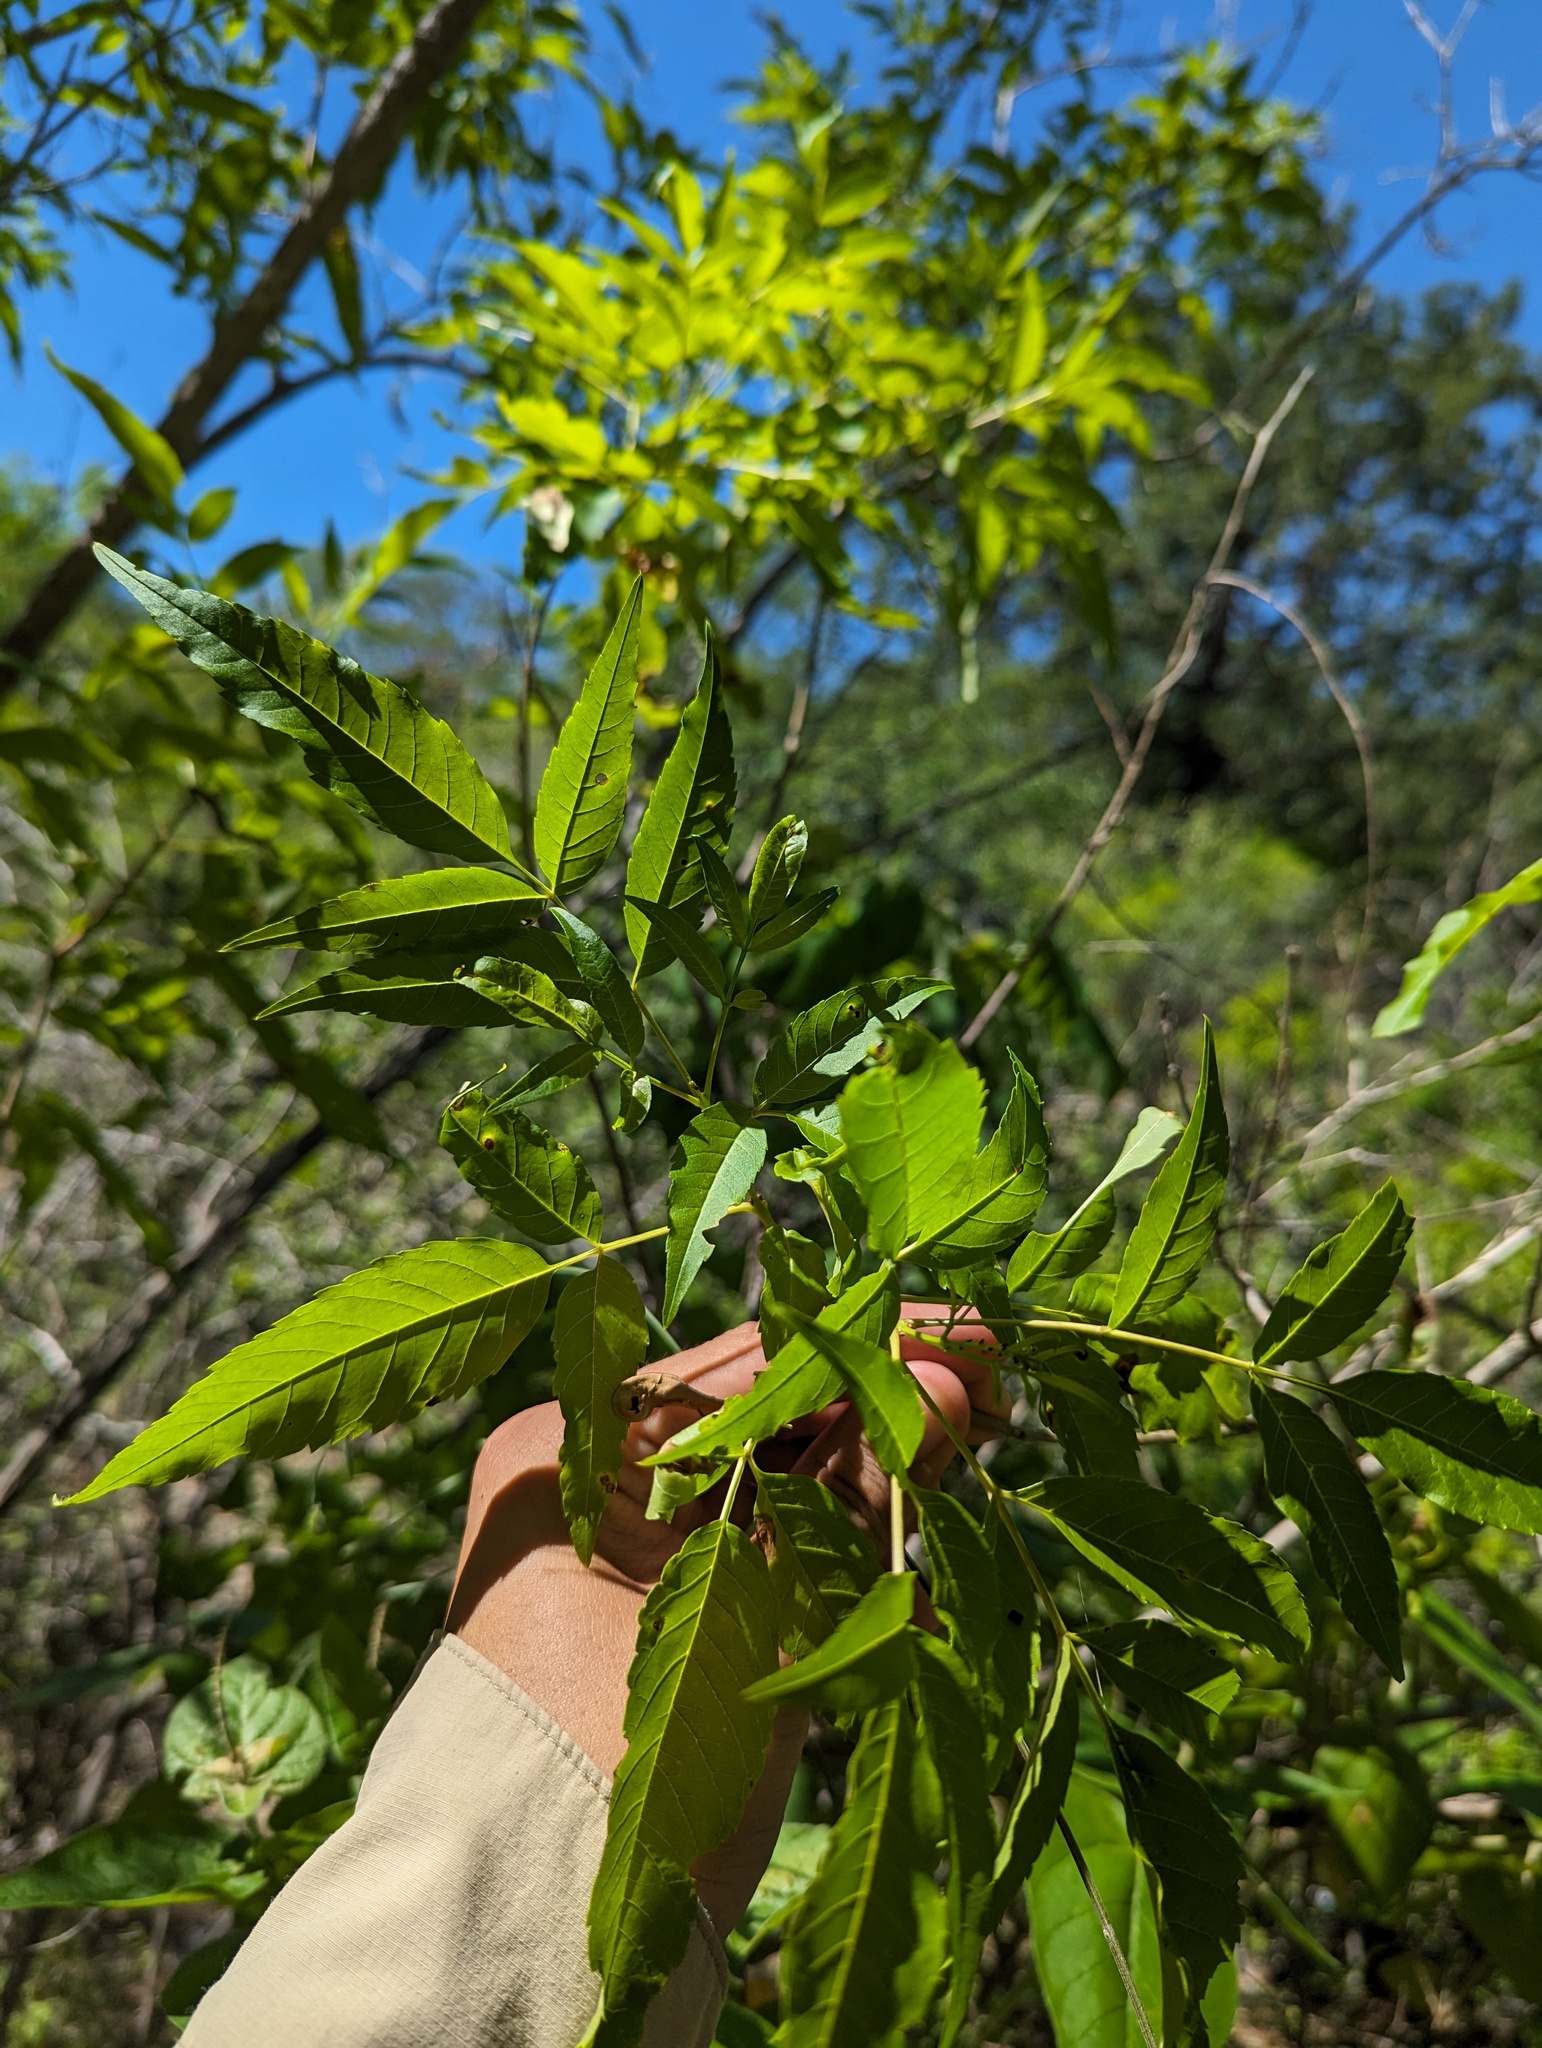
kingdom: Plantae
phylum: Tracheophyta
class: Magnoliopsida
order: Lamiales
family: Bignoniaceae
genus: Tecoma
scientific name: Tecoma stans
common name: Yellow trumpetbush
